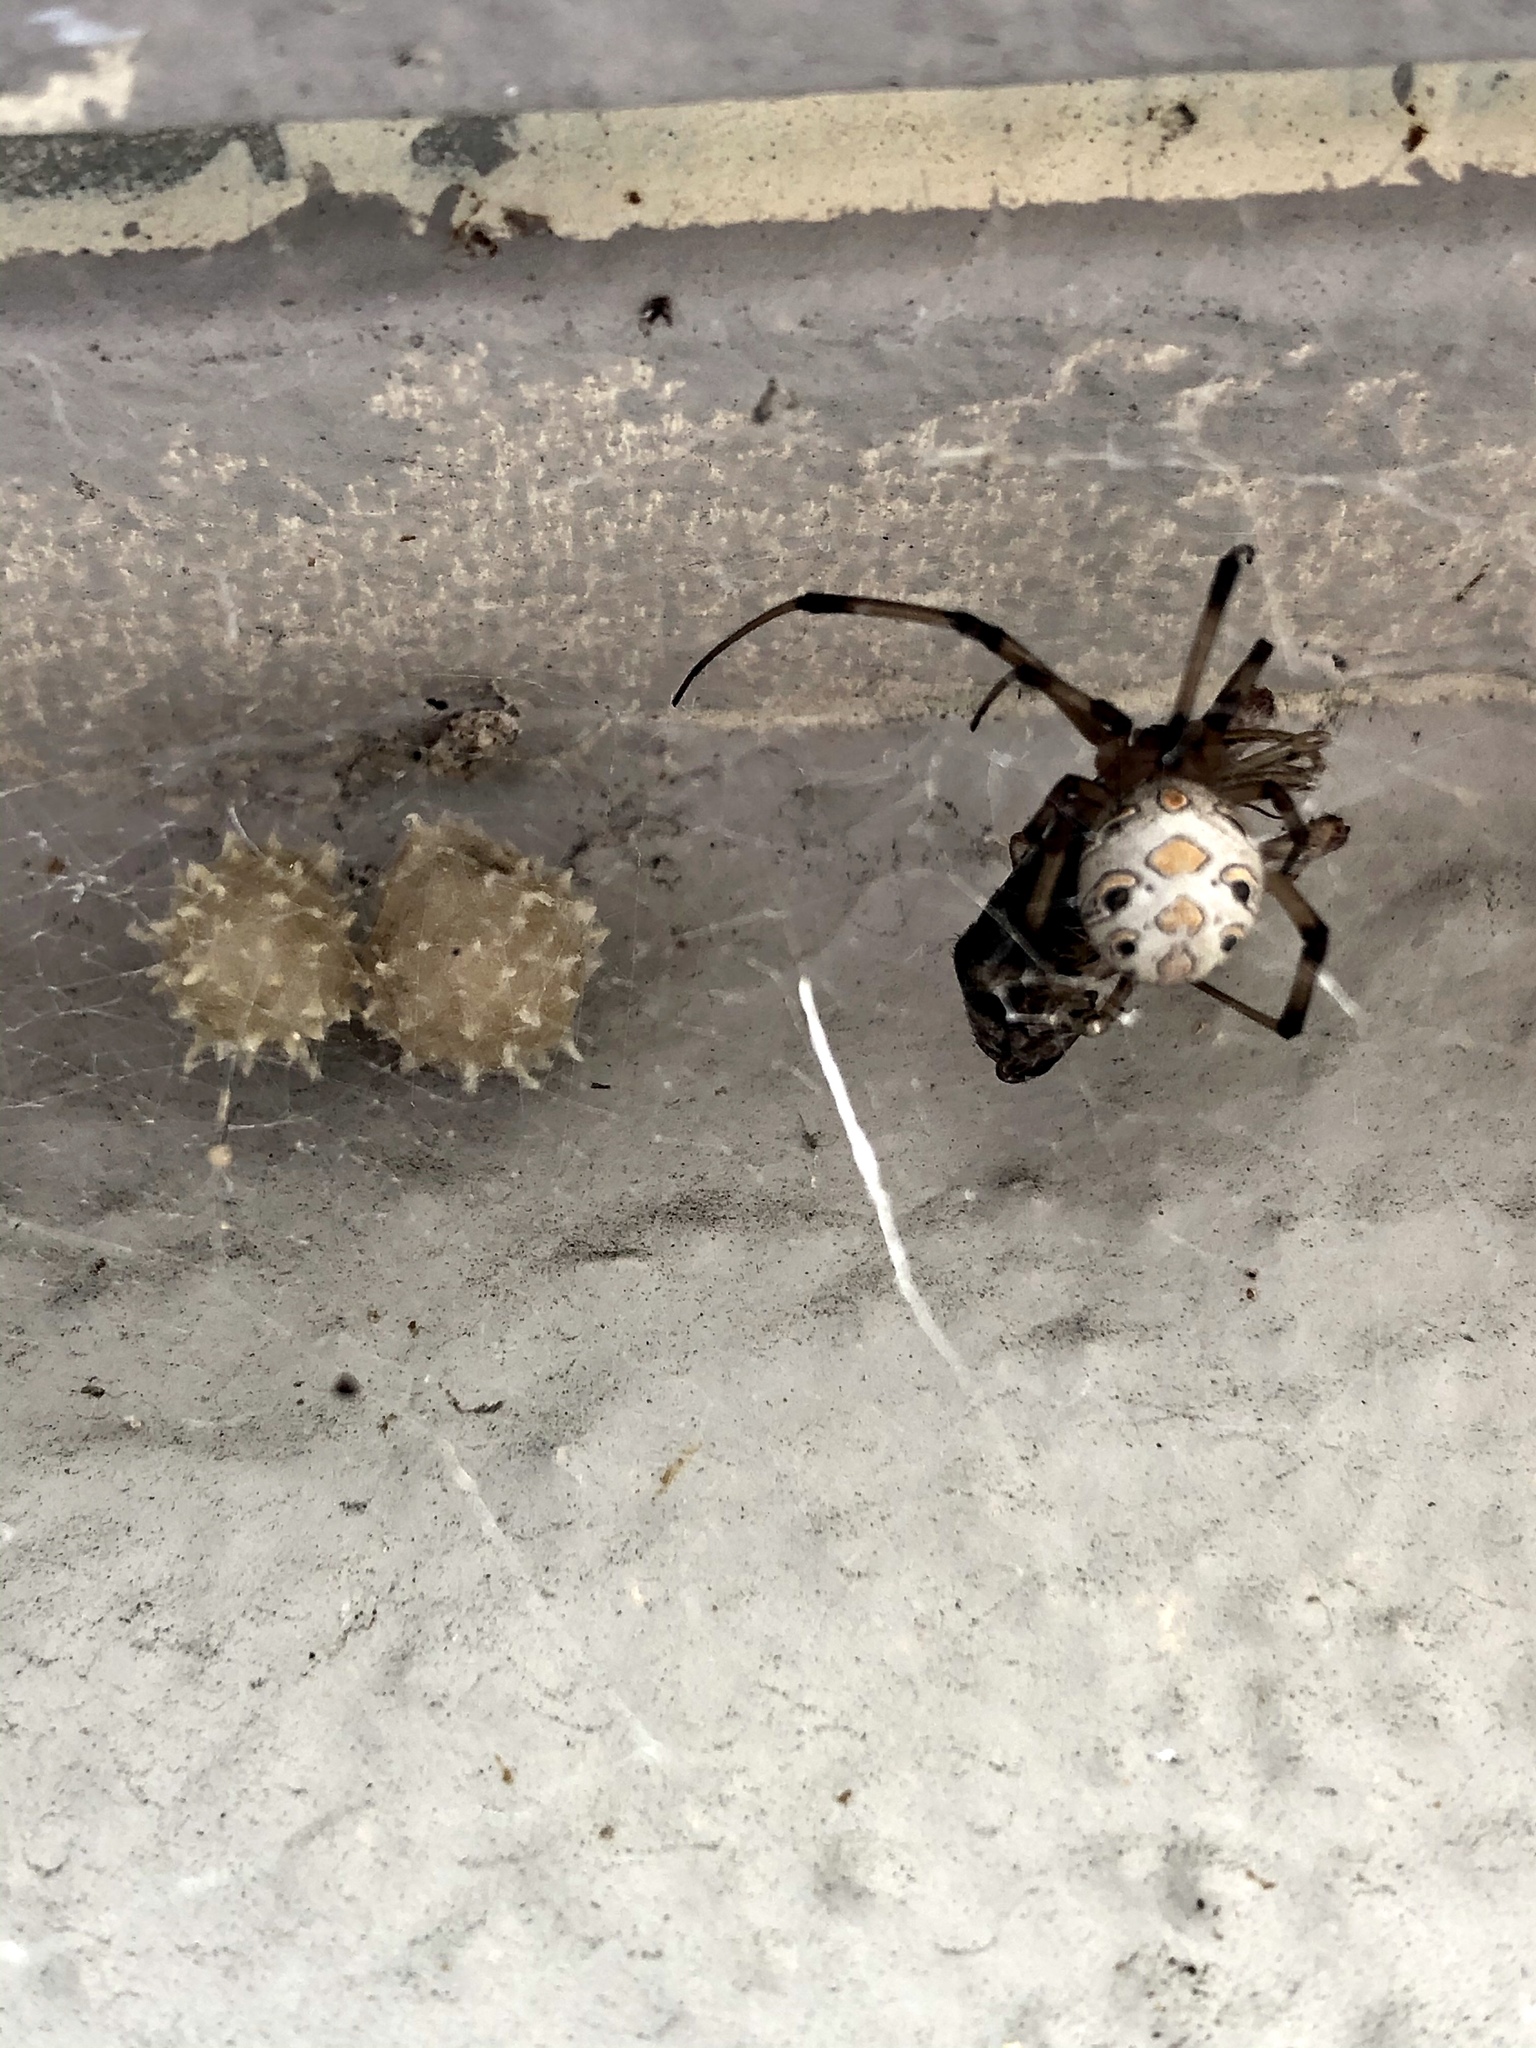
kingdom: Animalia
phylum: Arthropoda
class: Arachnida
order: Araneae
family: Theridiidae
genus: Latrodectus
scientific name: Latrodectus geometricus
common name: Brown widow spider
